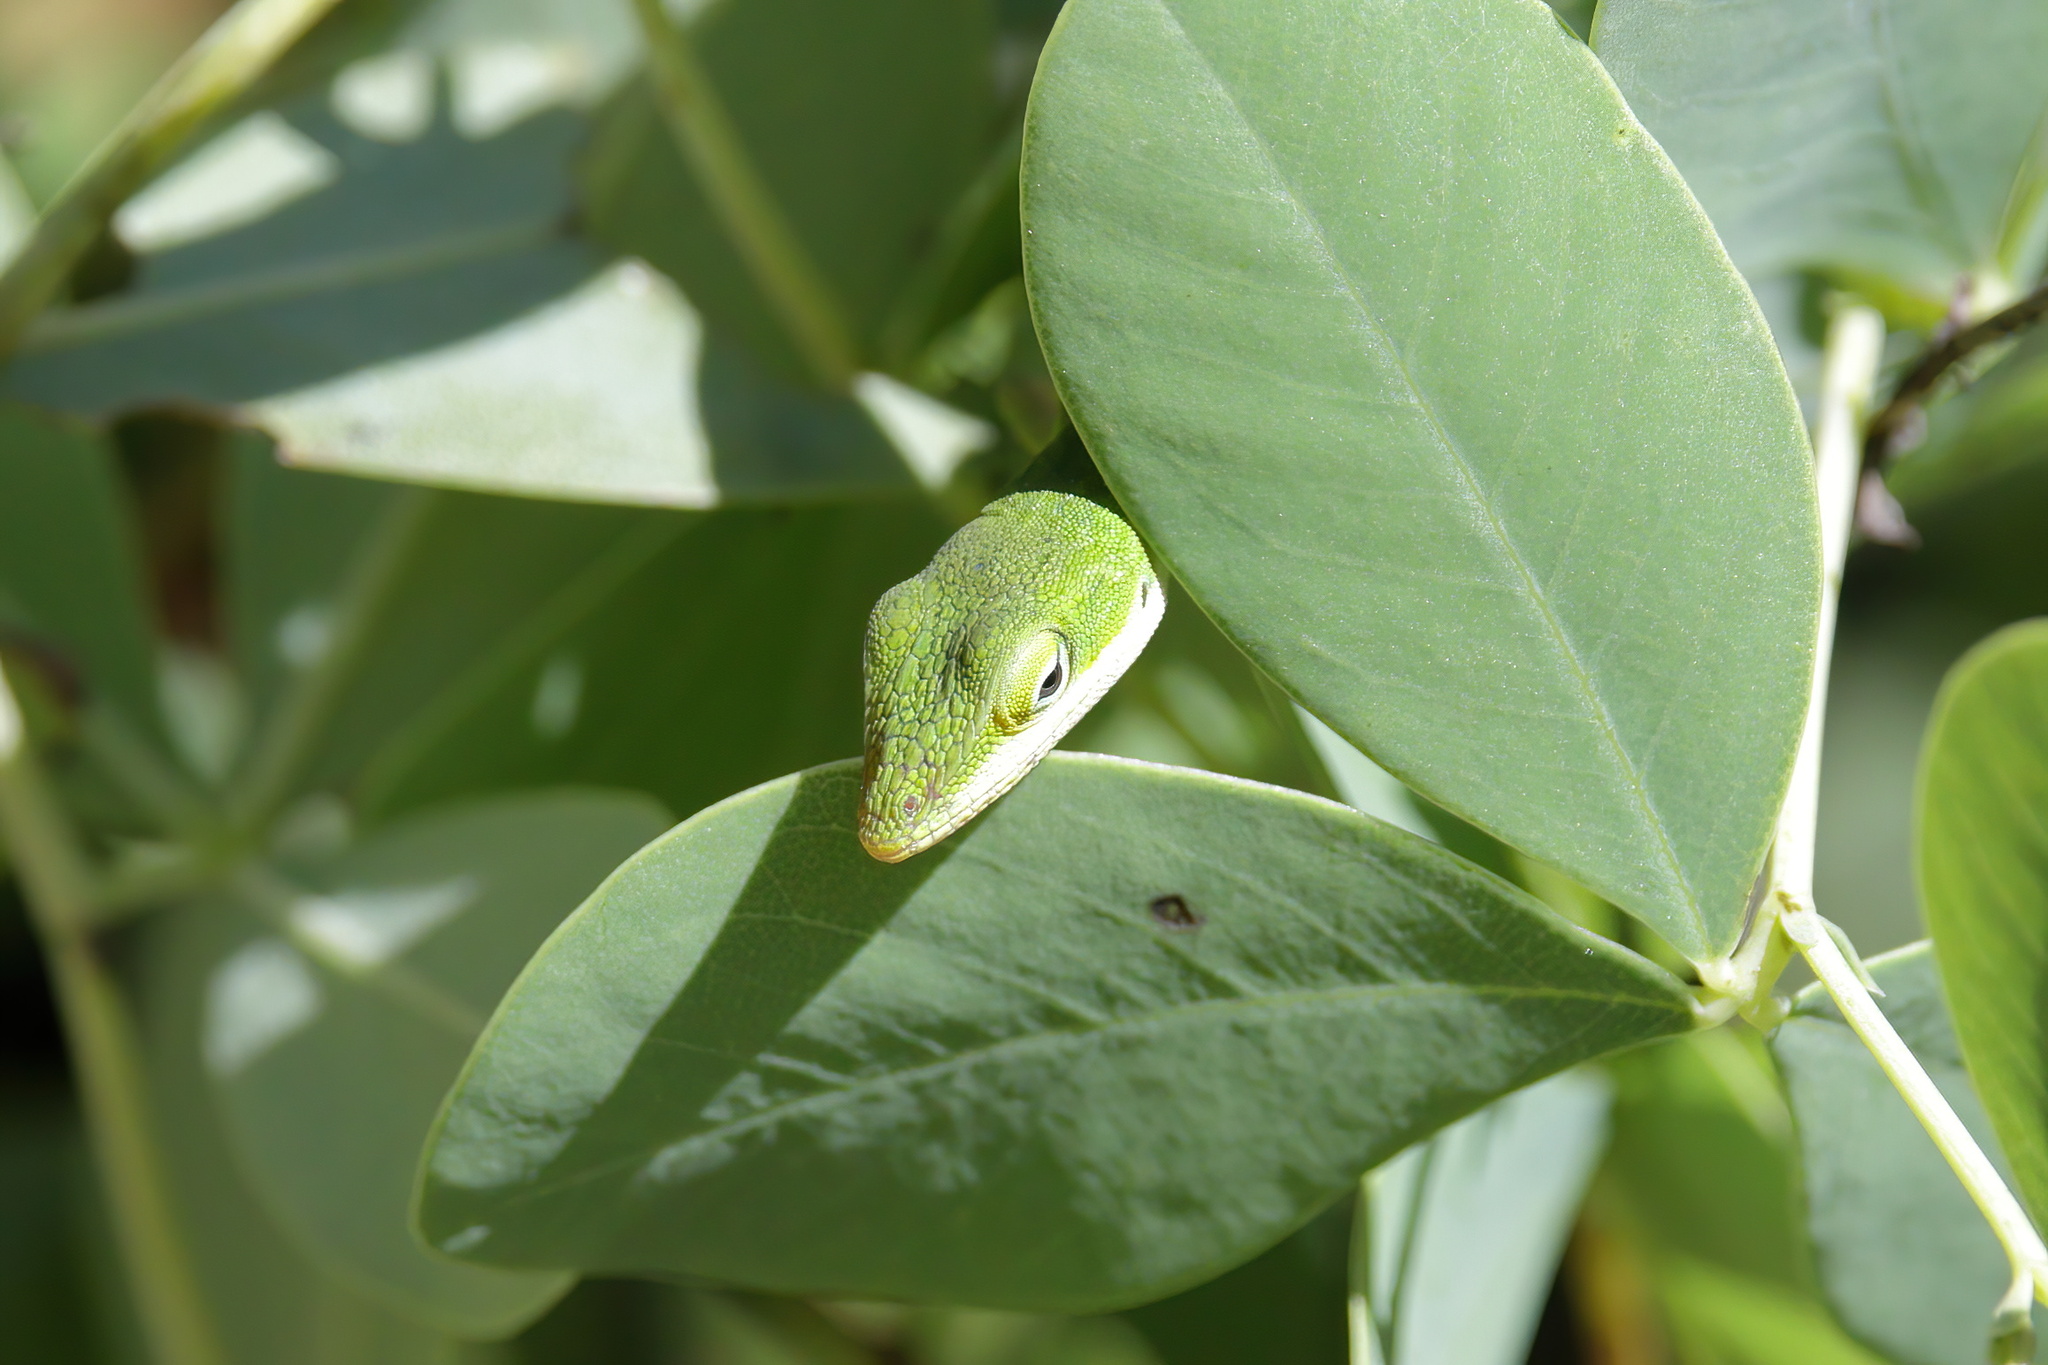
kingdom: Animalia
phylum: Chordata
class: Squamata
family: Dactyloidae
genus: Anolis
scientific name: Anolis carolinensis
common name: Green anole
